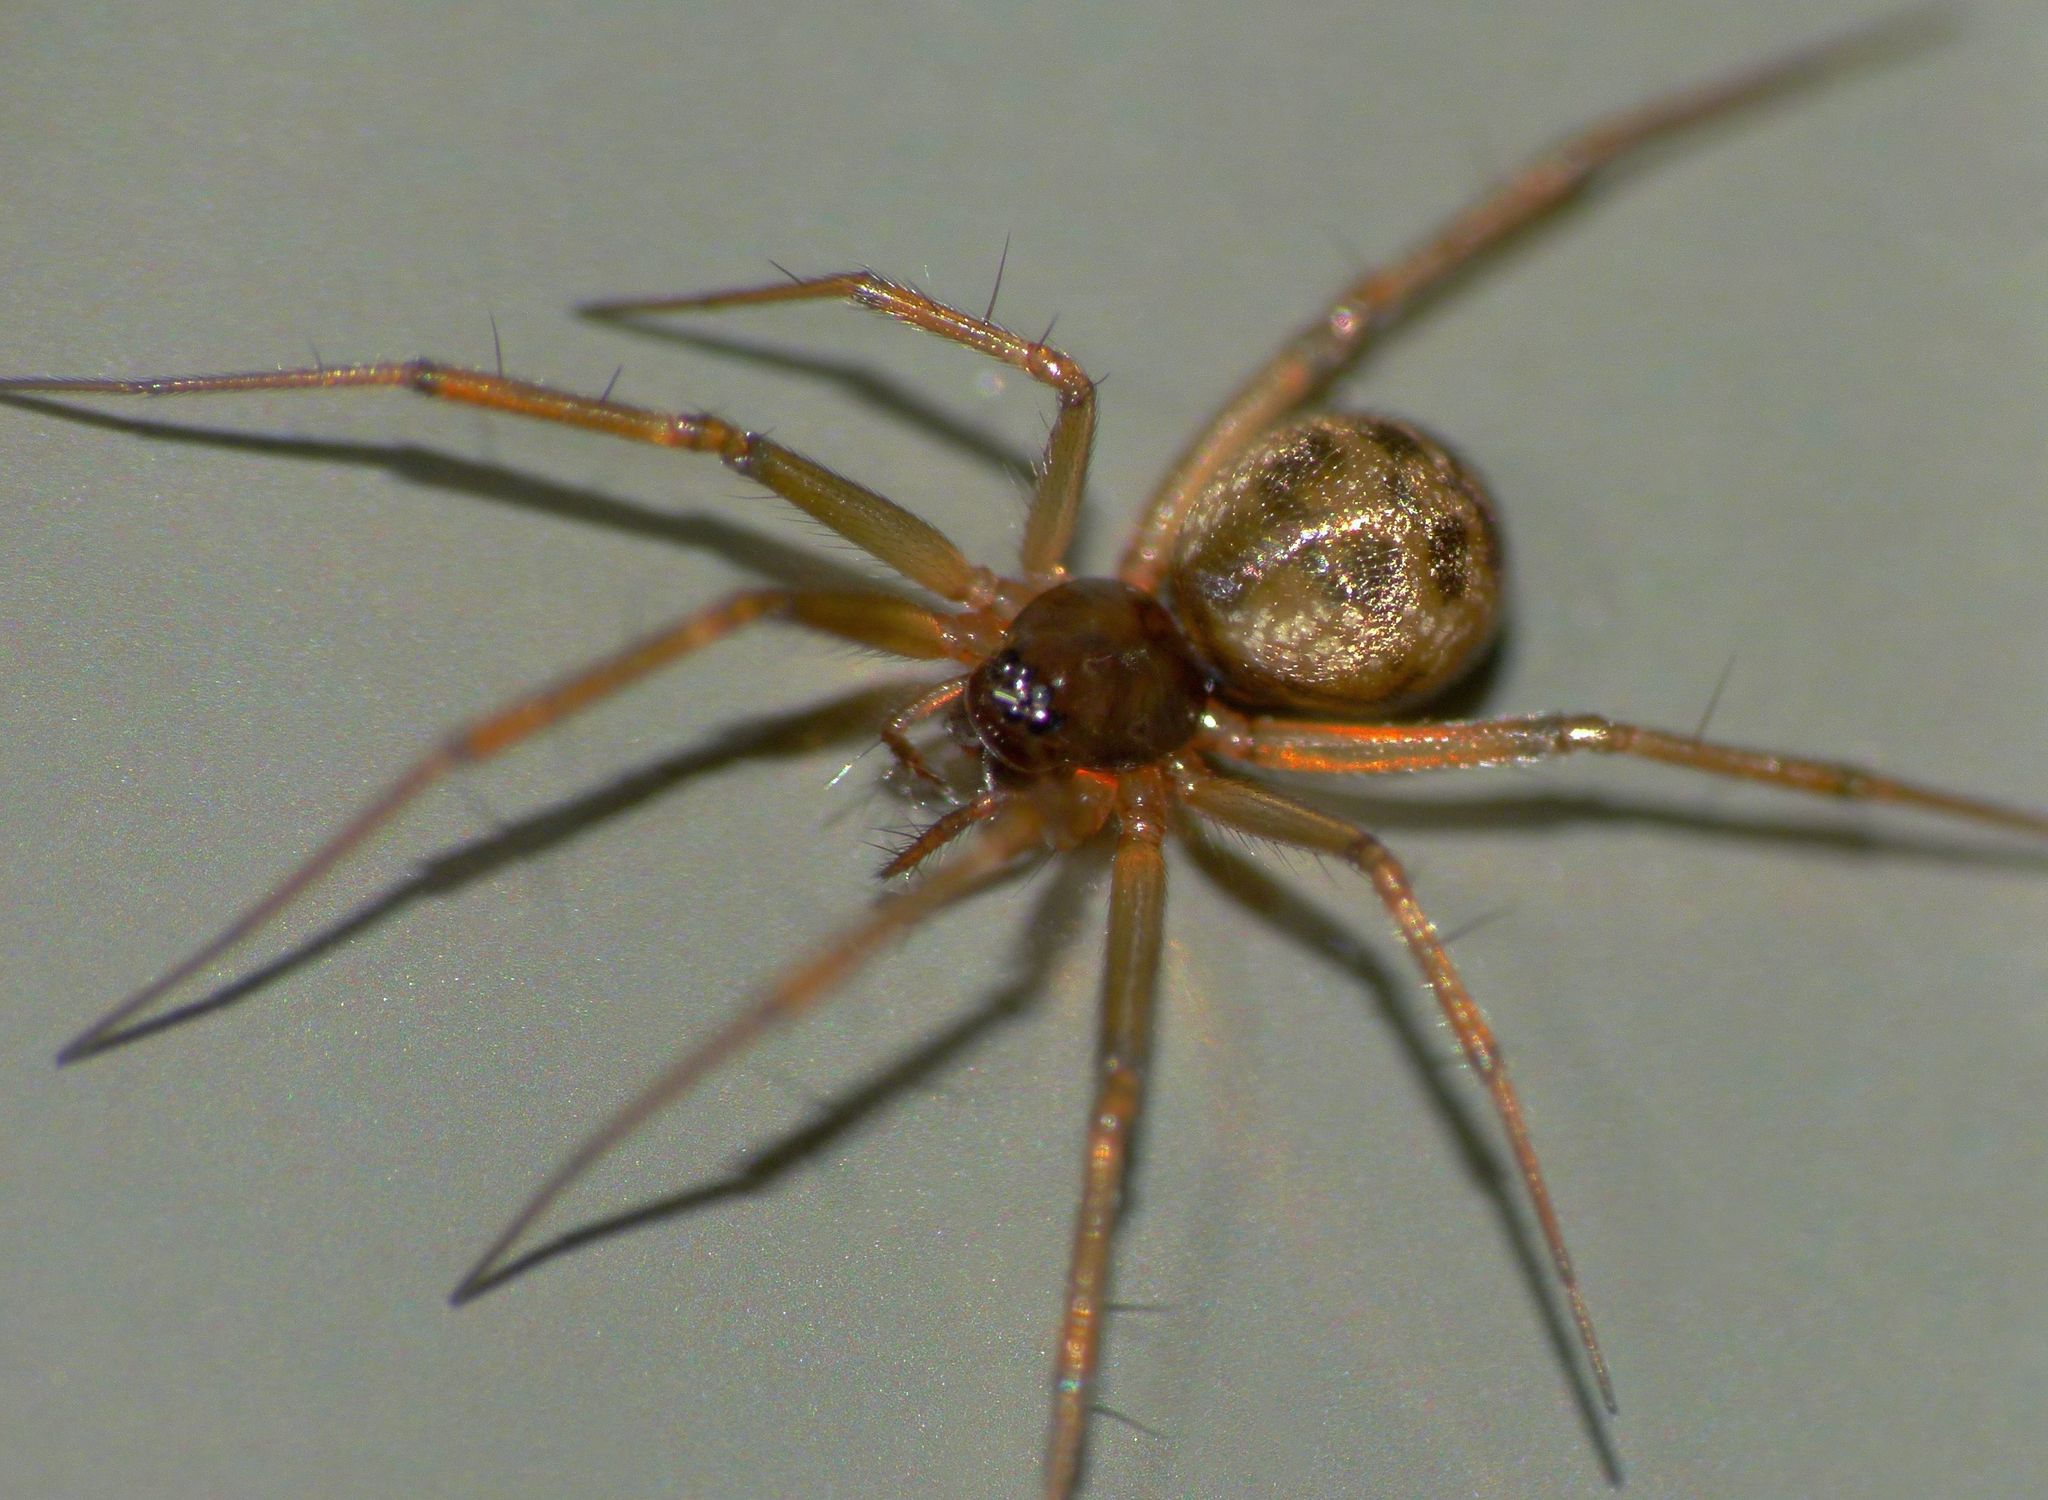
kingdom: Animalia
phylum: Arthropoda
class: Arachnida
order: Araneae
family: Linyphiidae
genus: Tenuiphantes
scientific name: Tenuiphantes tenuis
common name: Dwarf weaver
